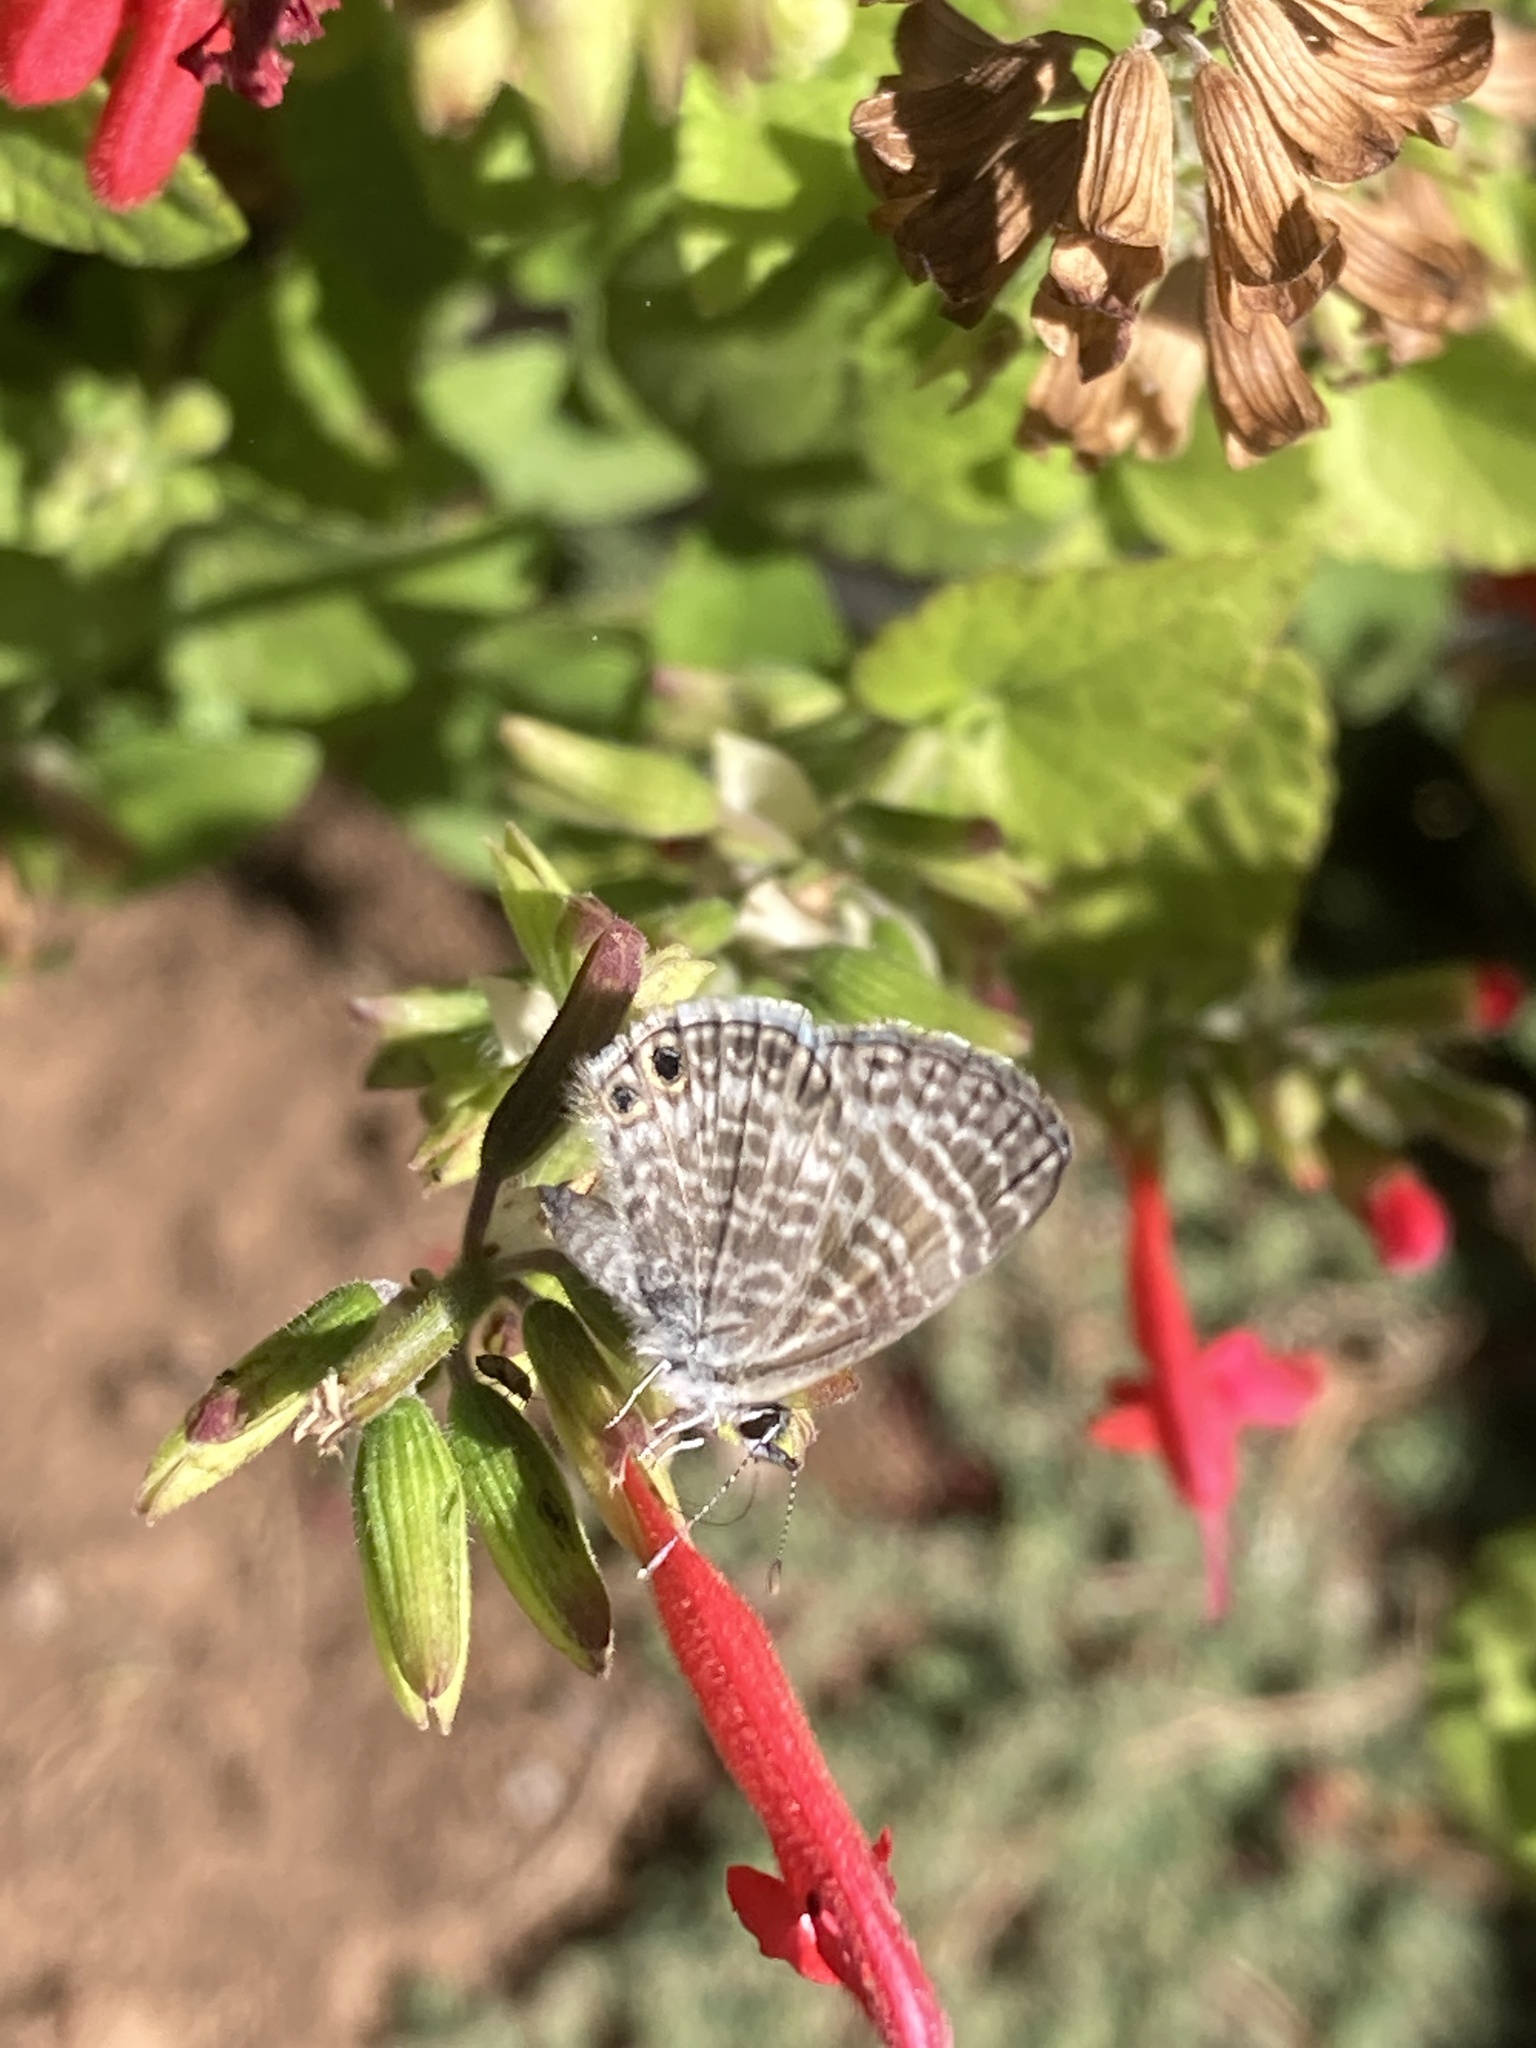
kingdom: Animalia
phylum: Arthropoda
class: Insecta
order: Lepidoptera
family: Lycaenidae
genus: Leptotes
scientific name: Leptotes marina
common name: Marine blue
